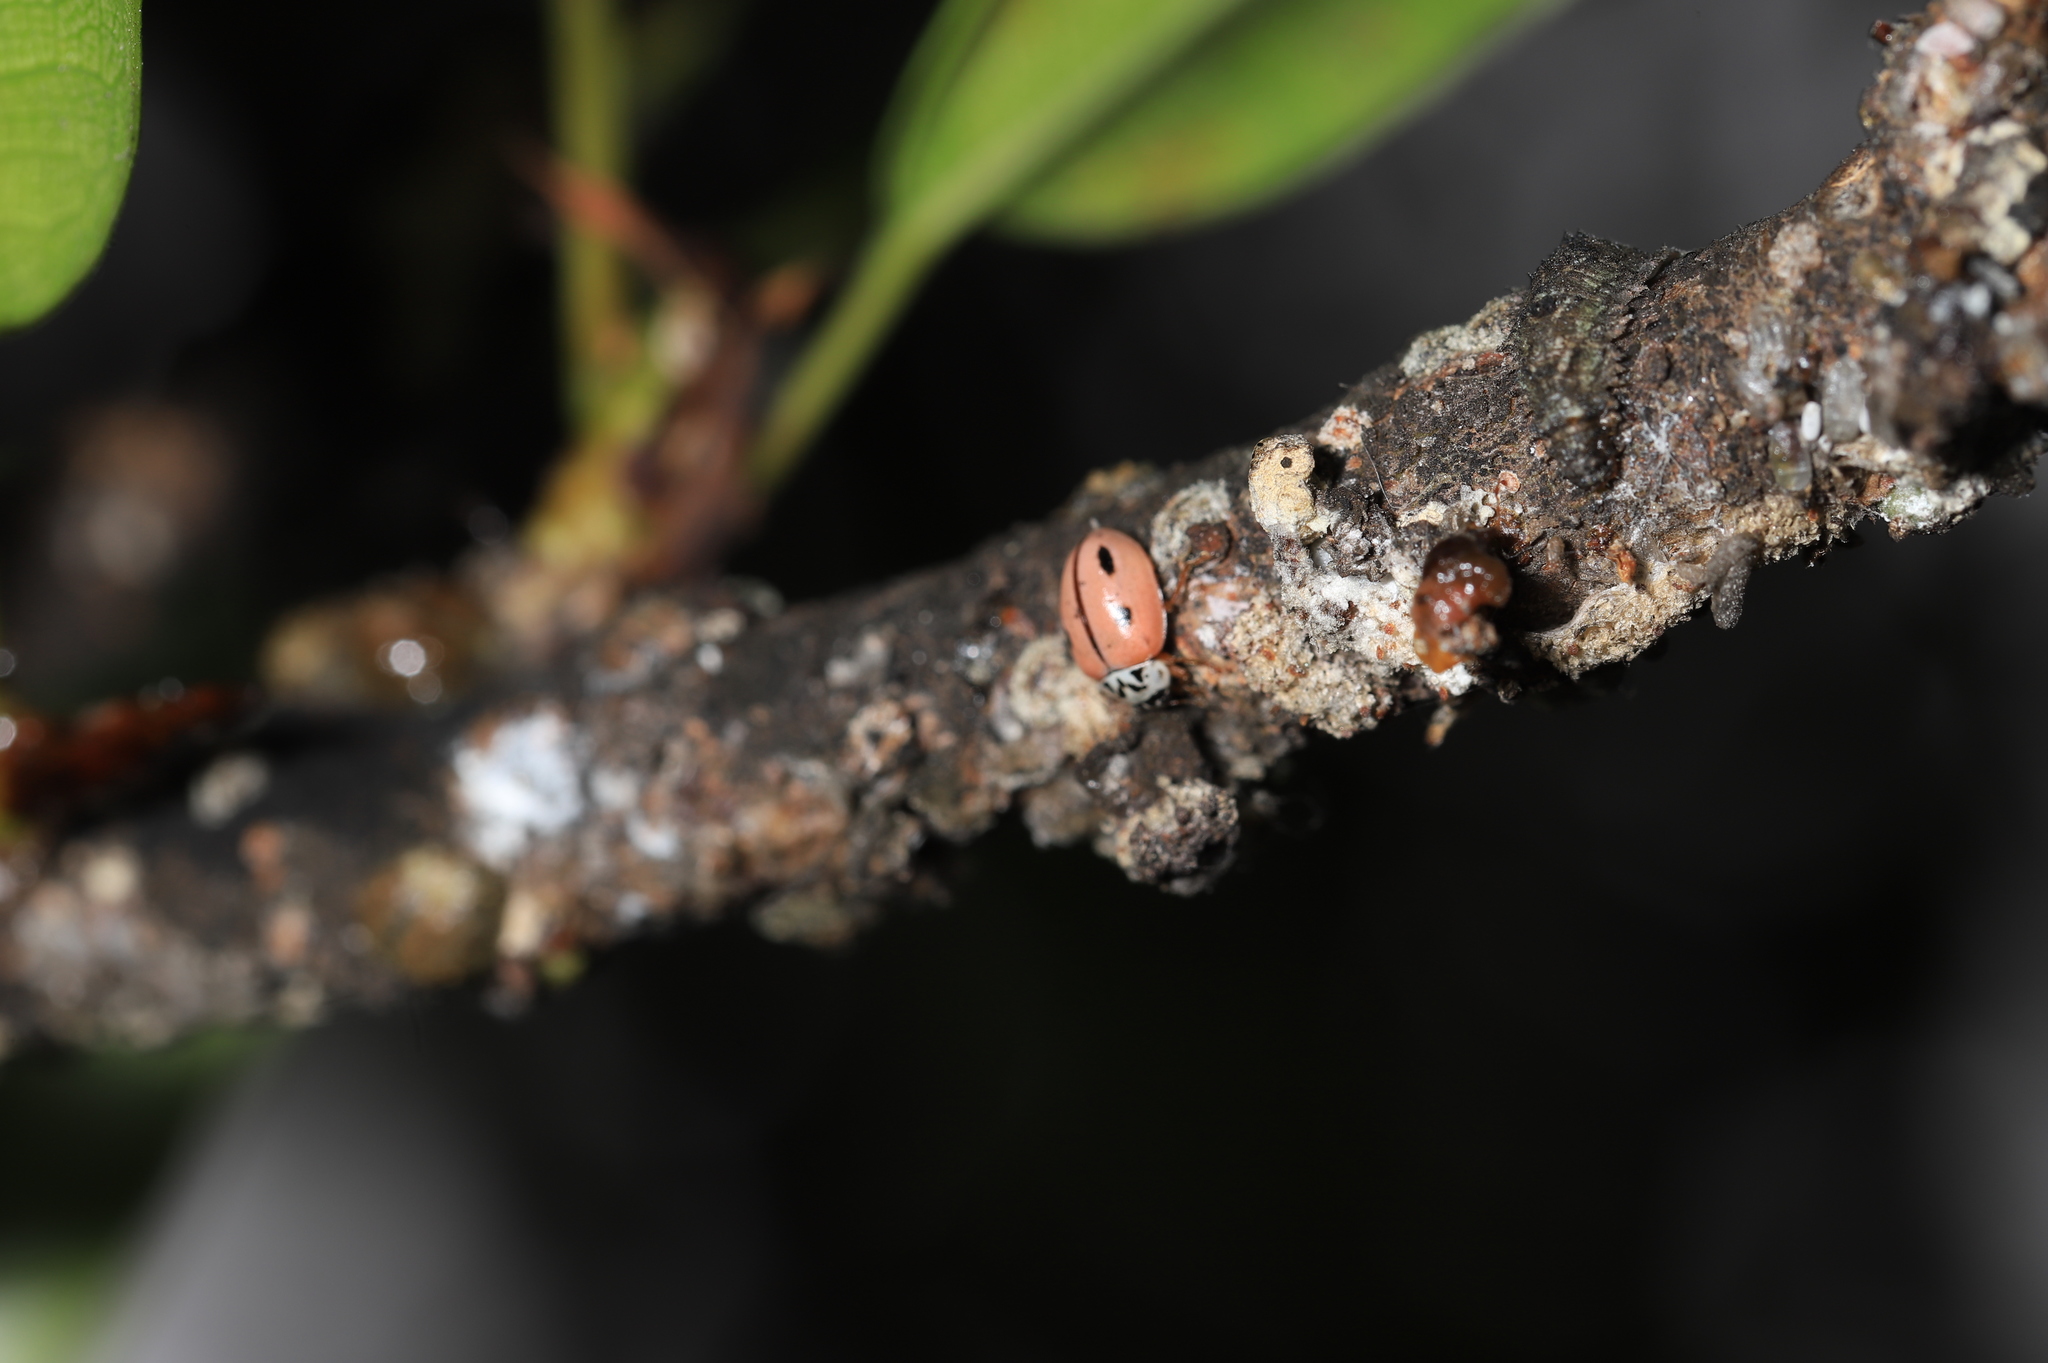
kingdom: Animalia
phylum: Arthropoda
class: Insecta
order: Coleoptera
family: Coccinellidae
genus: Mulsantina
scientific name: Mulsantina
